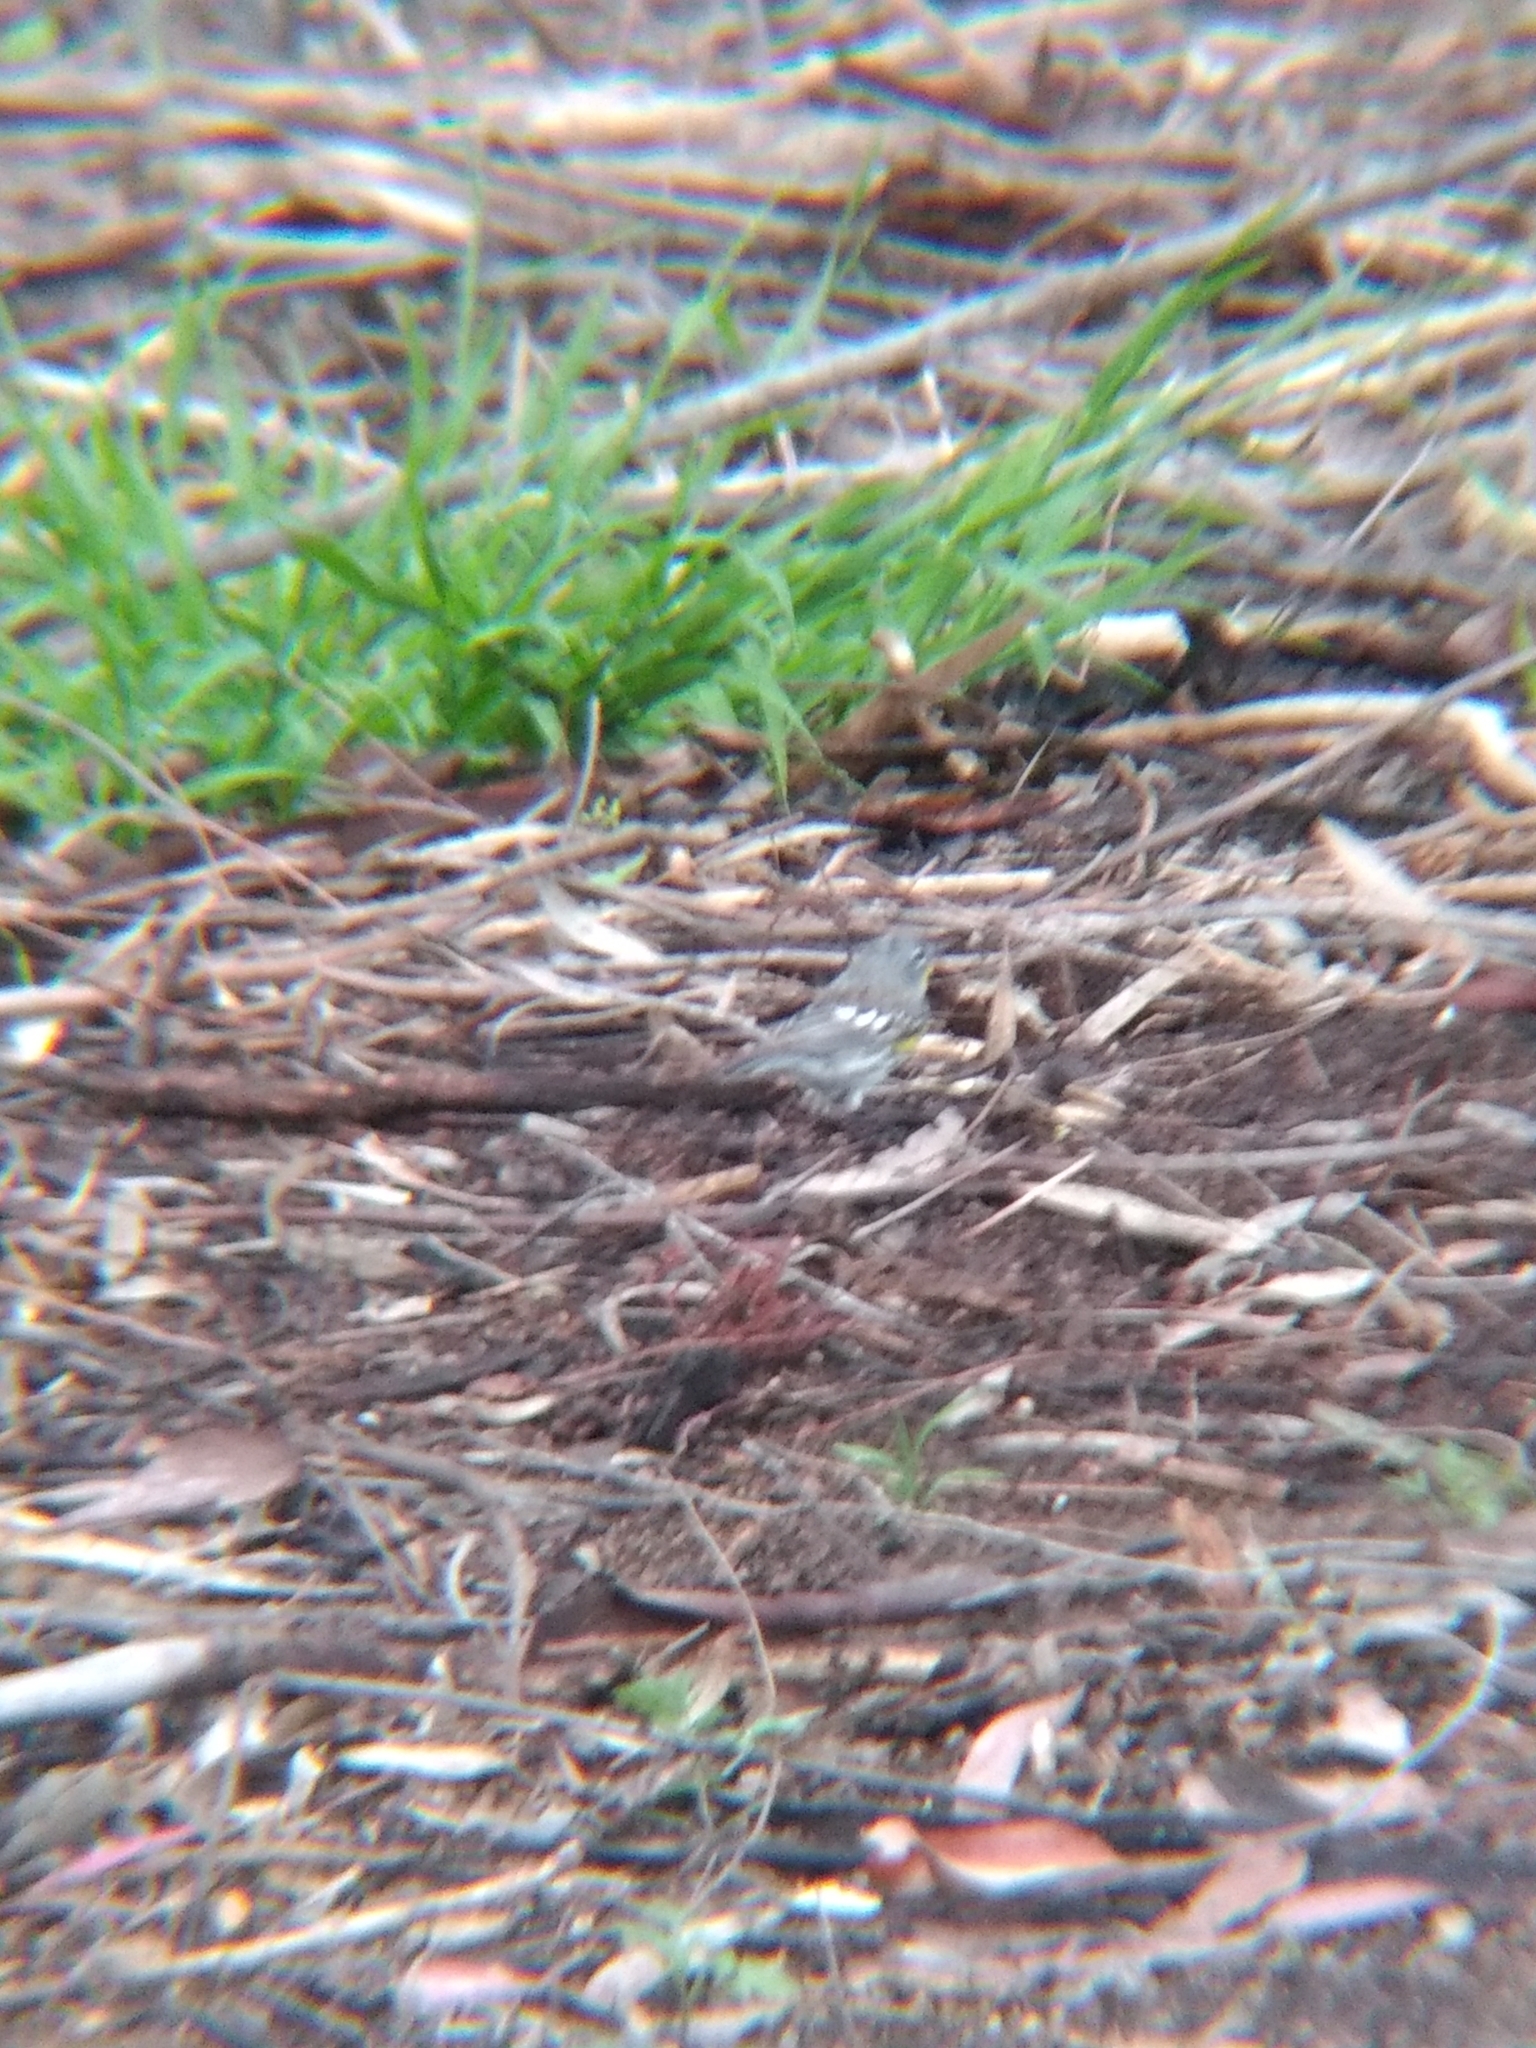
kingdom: Animalia
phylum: Chordata
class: Aves
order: Passeriformes
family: Parulidae
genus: Setophaga
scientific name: Setophaga coronata
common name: Myrtle warbler
